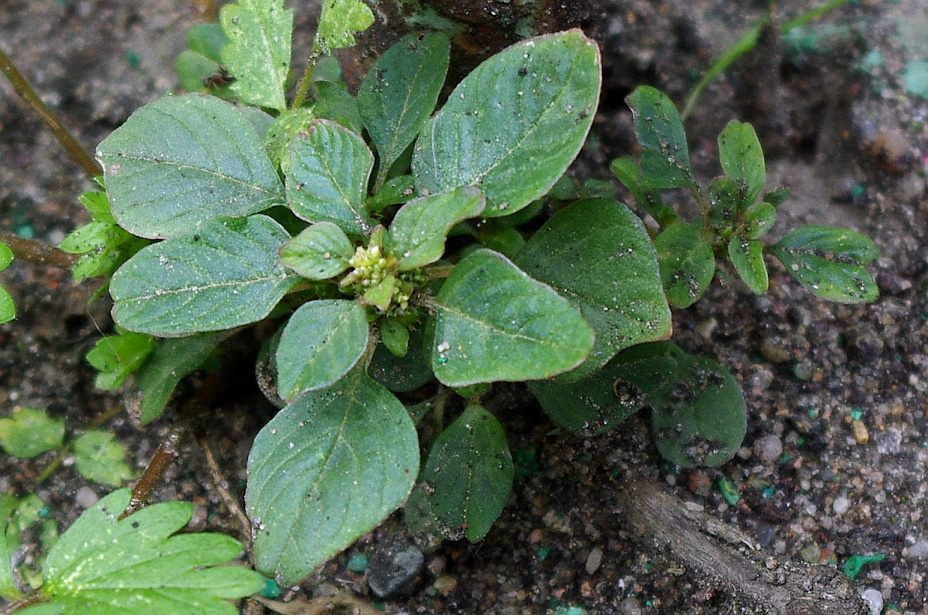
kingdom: Plantae
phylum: Tracheophyta
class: Magnoliopsida
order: Caryophyllales
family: Amaranthaceae
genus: Amaranthus
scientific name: Amaranthus blitum
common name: Purple amaranth
